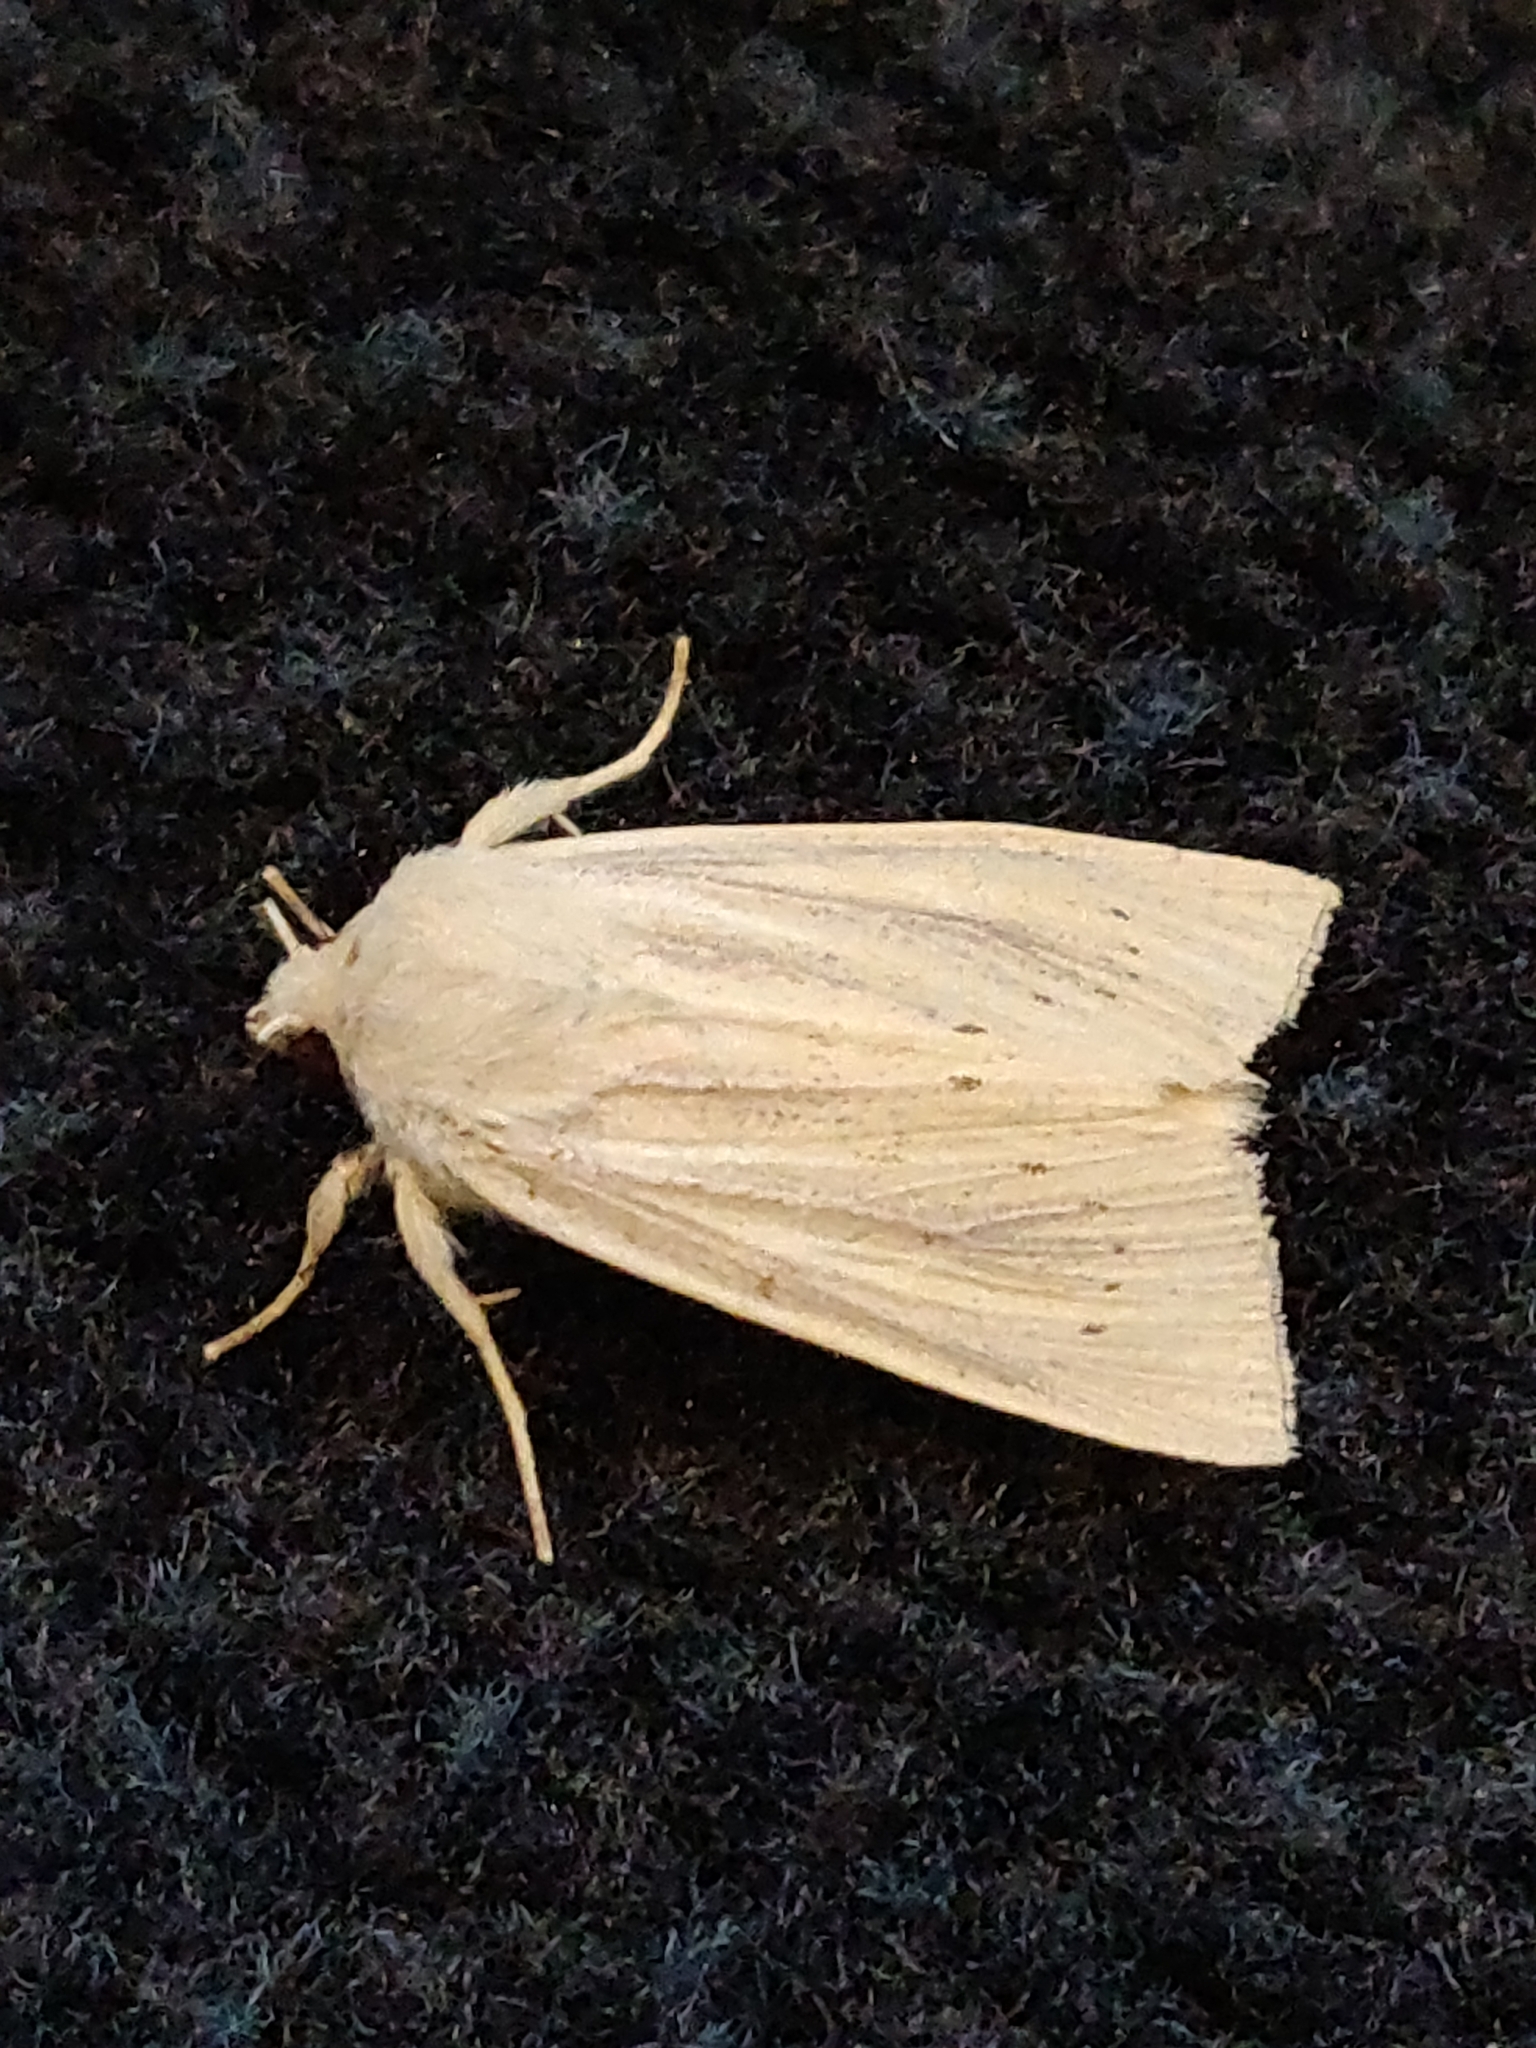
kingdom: Animalia
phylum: Arthropoda
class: Insecta
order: Lepidoptera
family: Noctuidae
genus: Rhizedra
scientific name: Rhizedra lutosa
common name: Large wainscot
